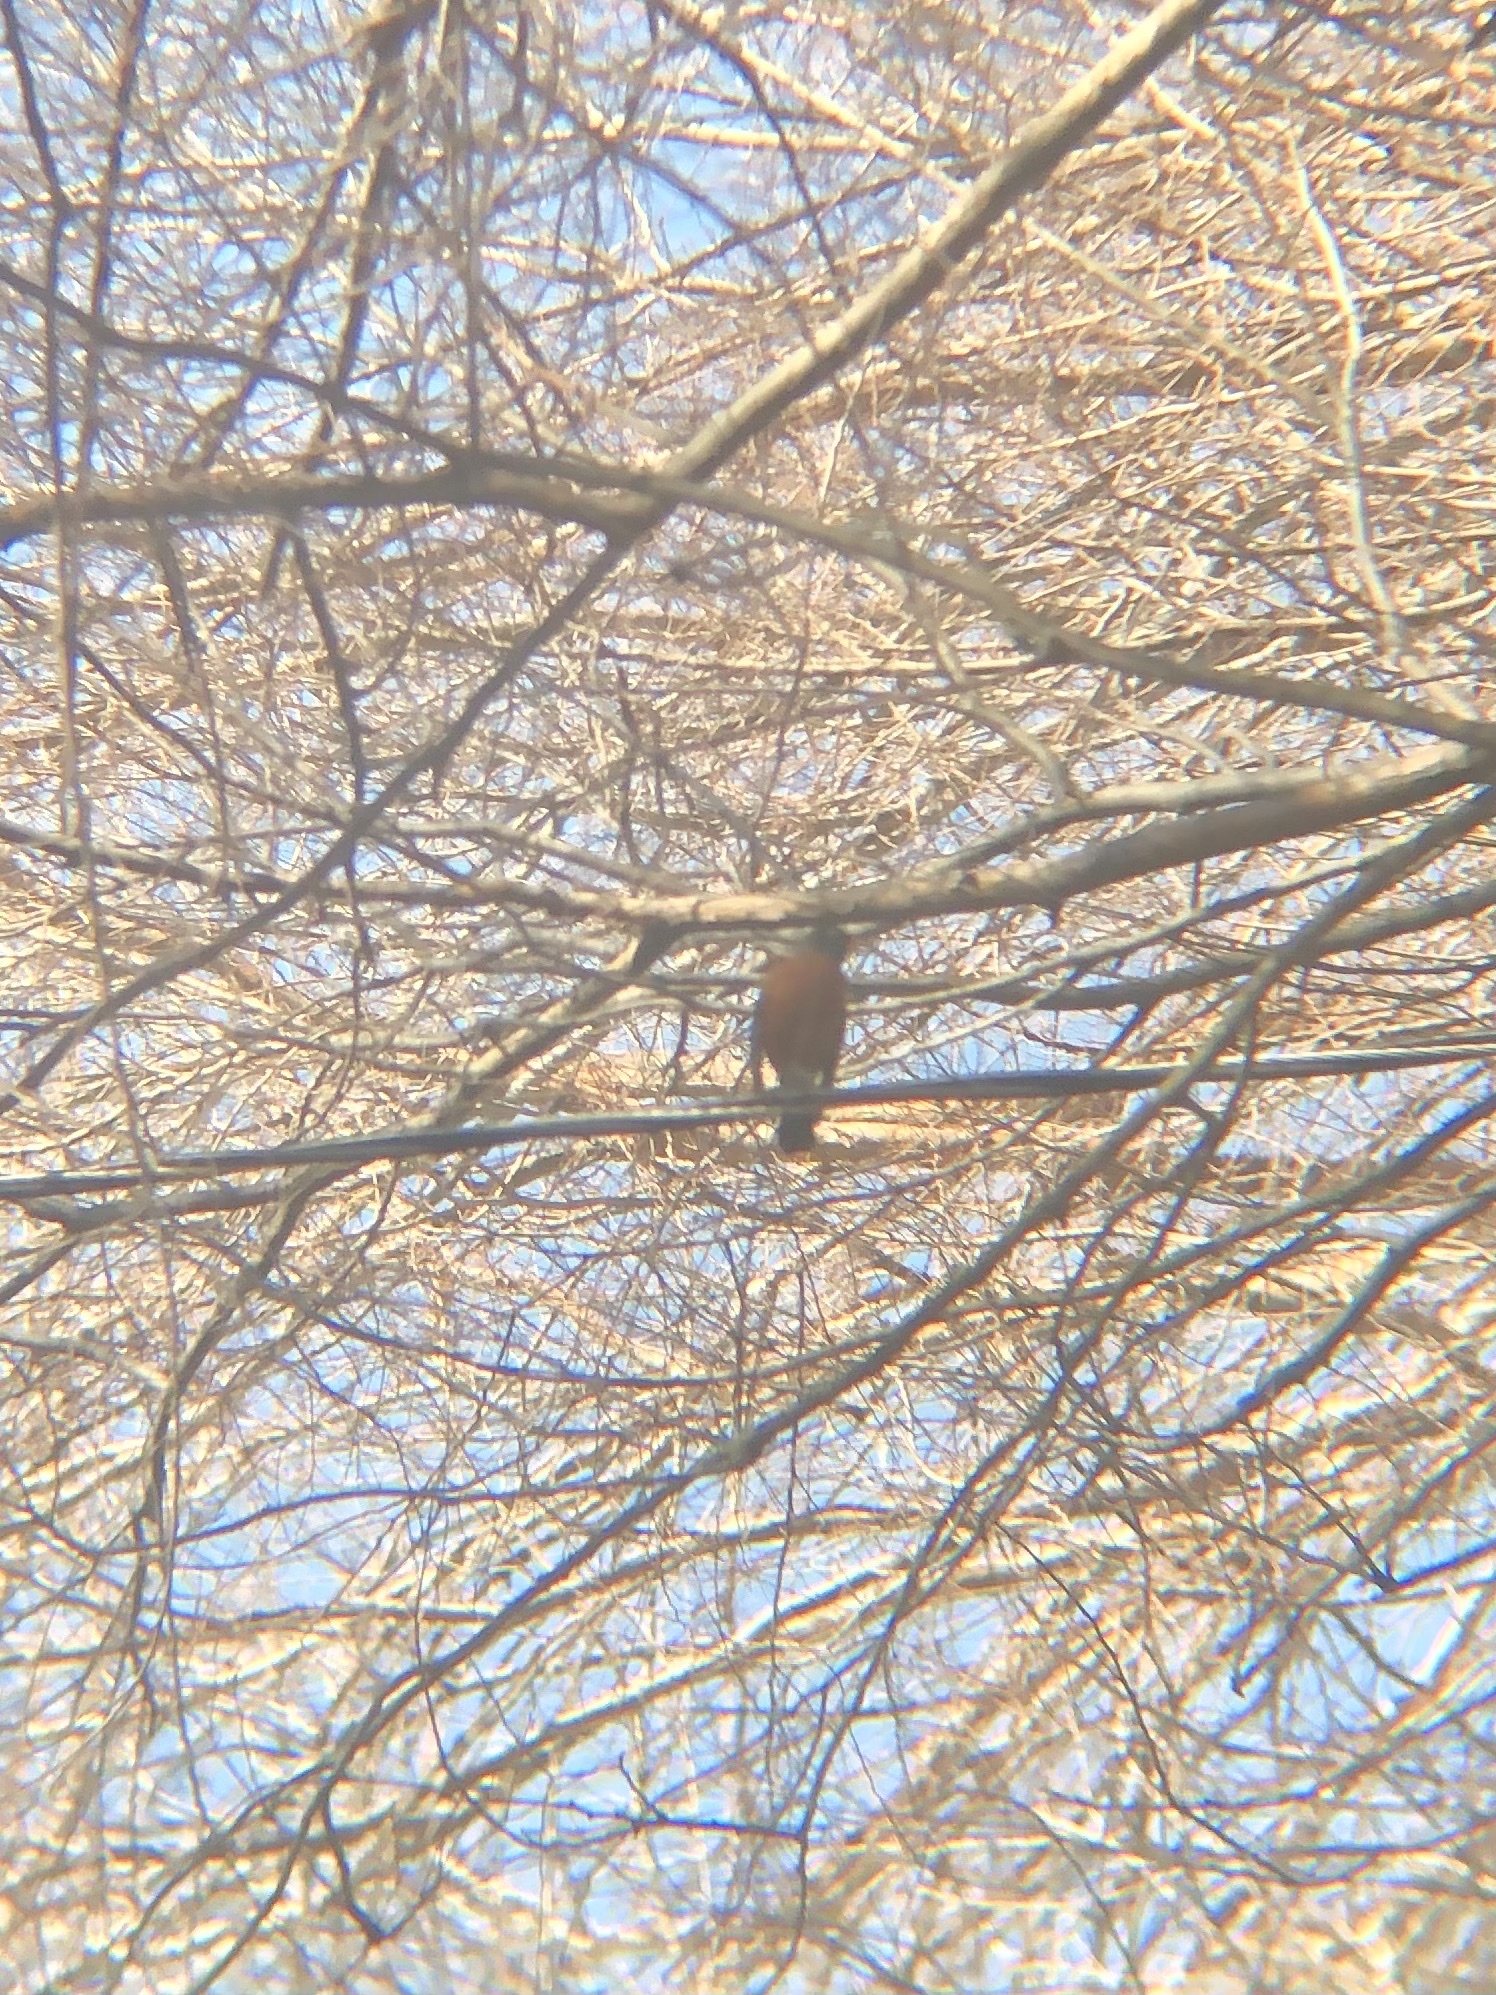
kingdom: Animalia
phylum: Chordata
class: Aves
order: Passeriformes
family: Turdidae
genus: Turdus
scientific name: Turdus migratorius
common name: American robin
